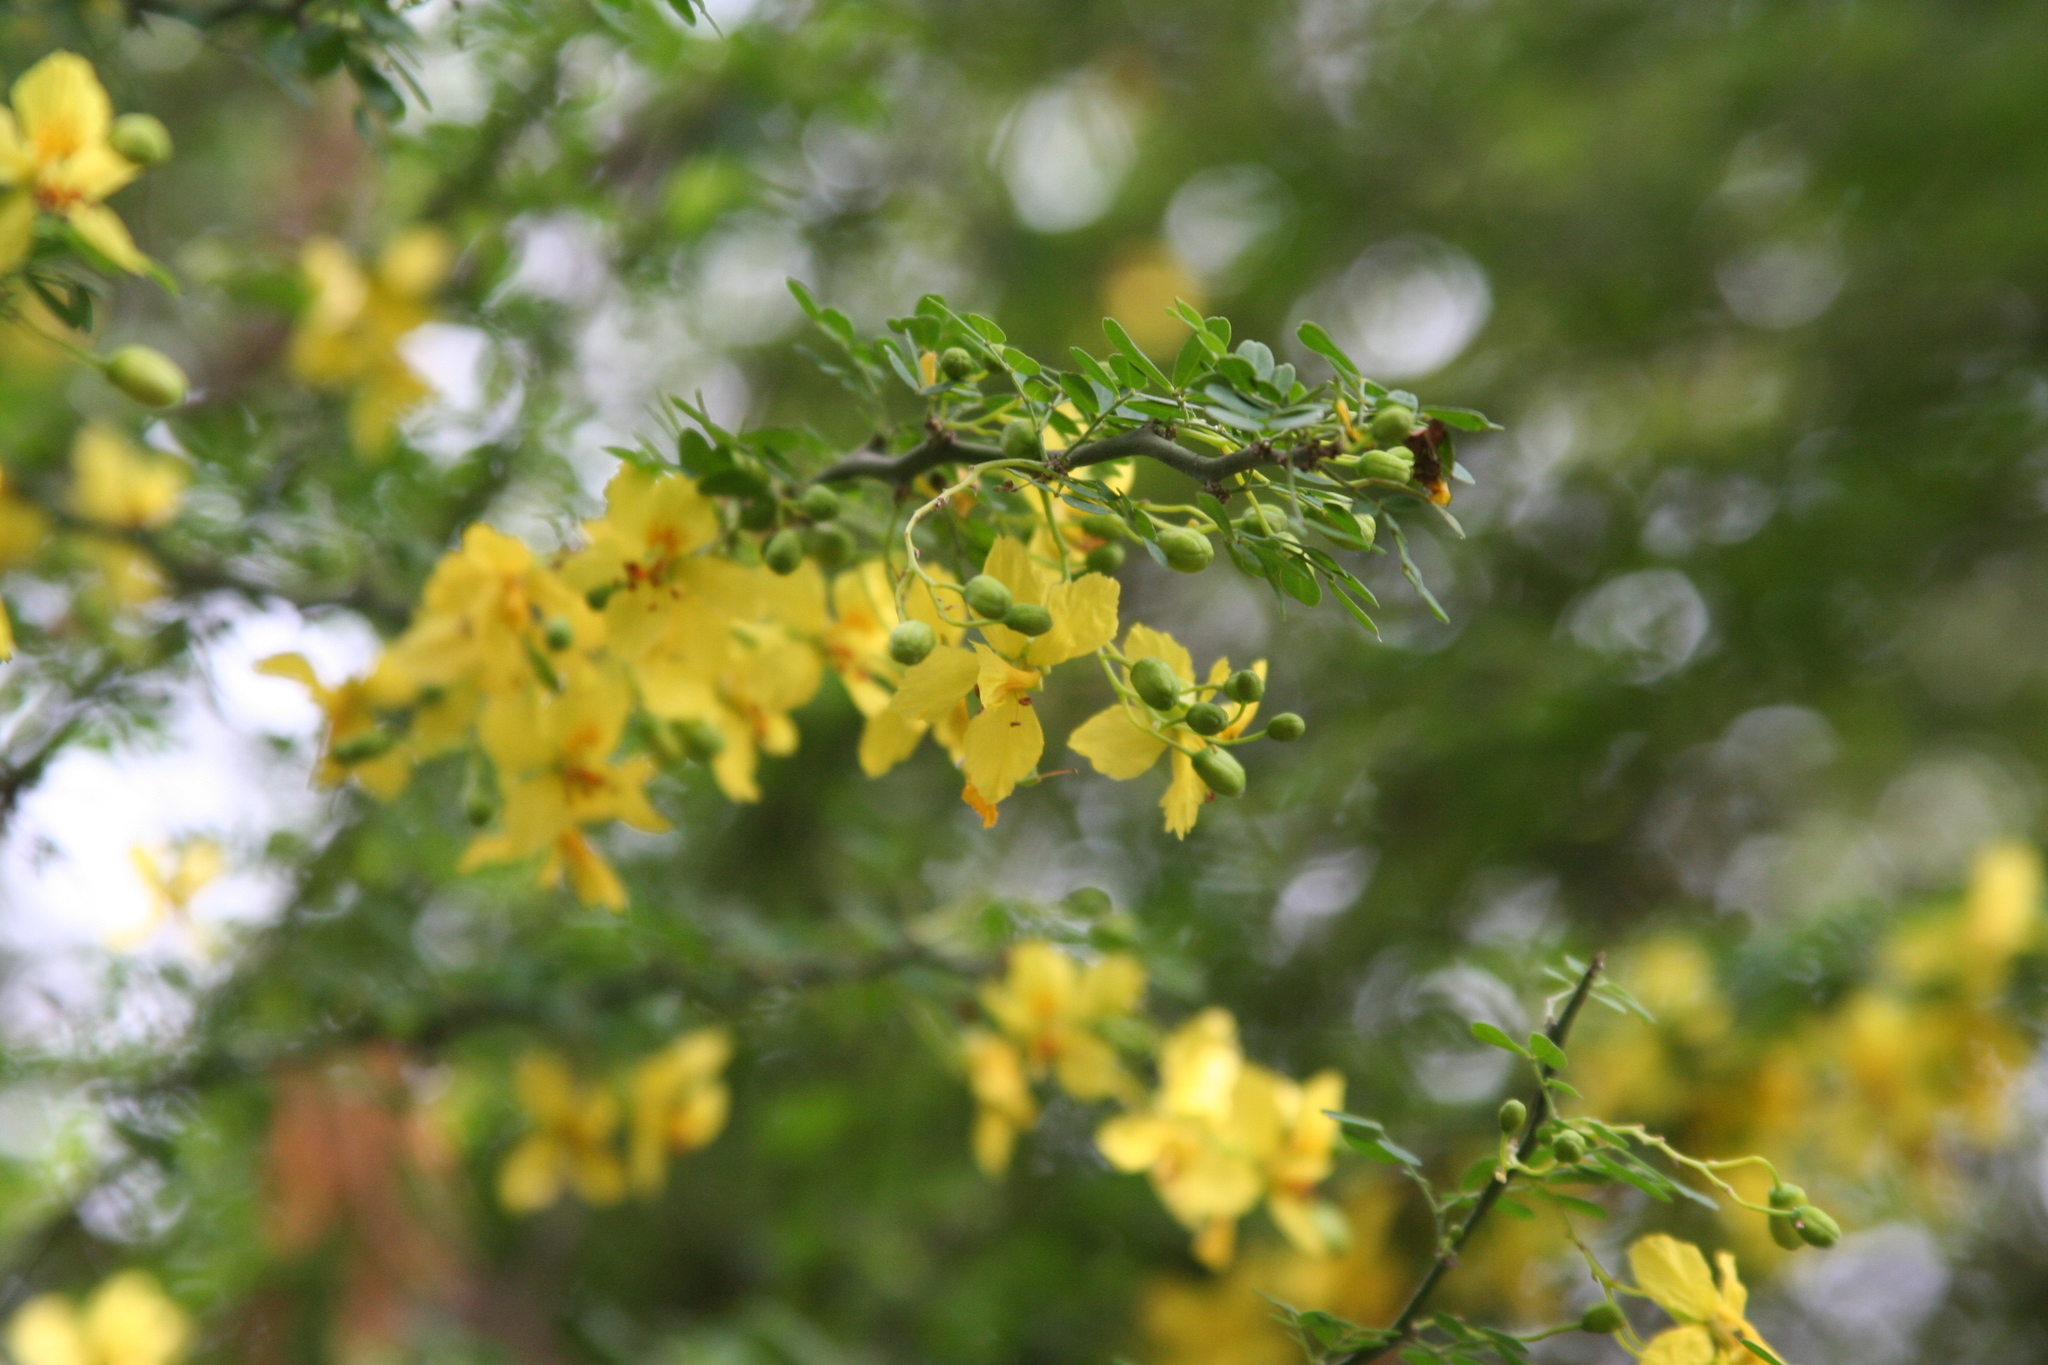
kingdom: Plantae
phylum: Tracheophyta
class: Magnoliopsida
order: Fabales
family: Fabaceae
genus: Parkinsonia
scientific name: Parkinsonia texana
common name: Texas paloverde
